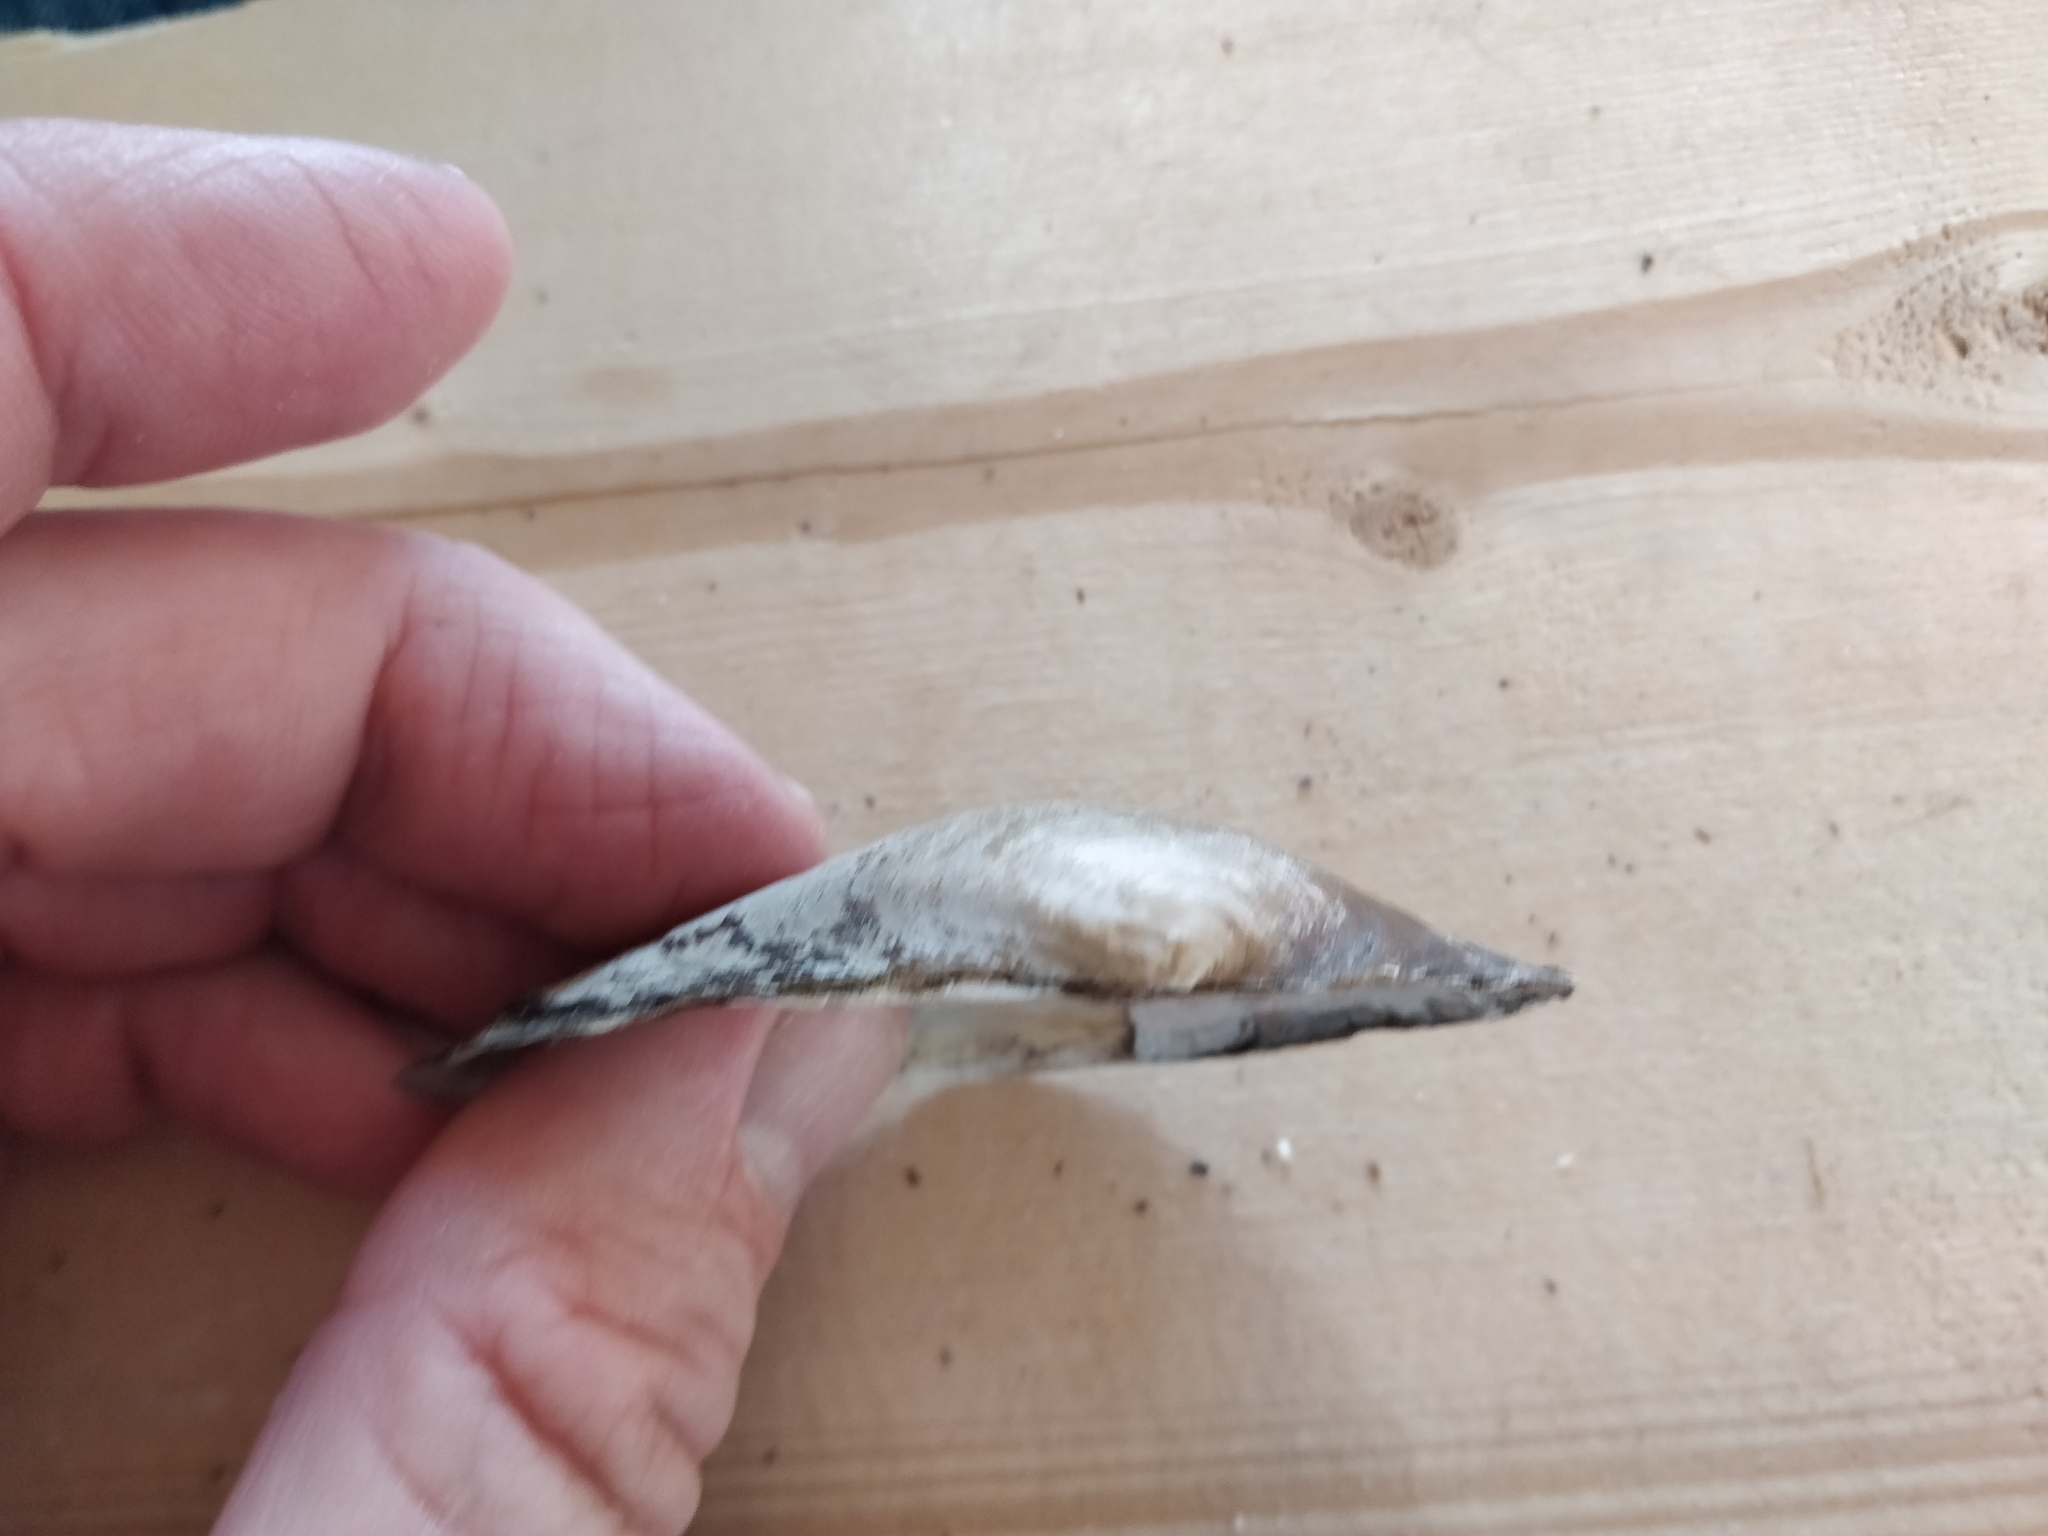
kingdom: Animalia
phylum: Mollusca
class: Bivalvia
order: Unionida
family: Unionidae
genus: Pyganodon
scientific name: Pyganodon grandis
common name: Giant floater
